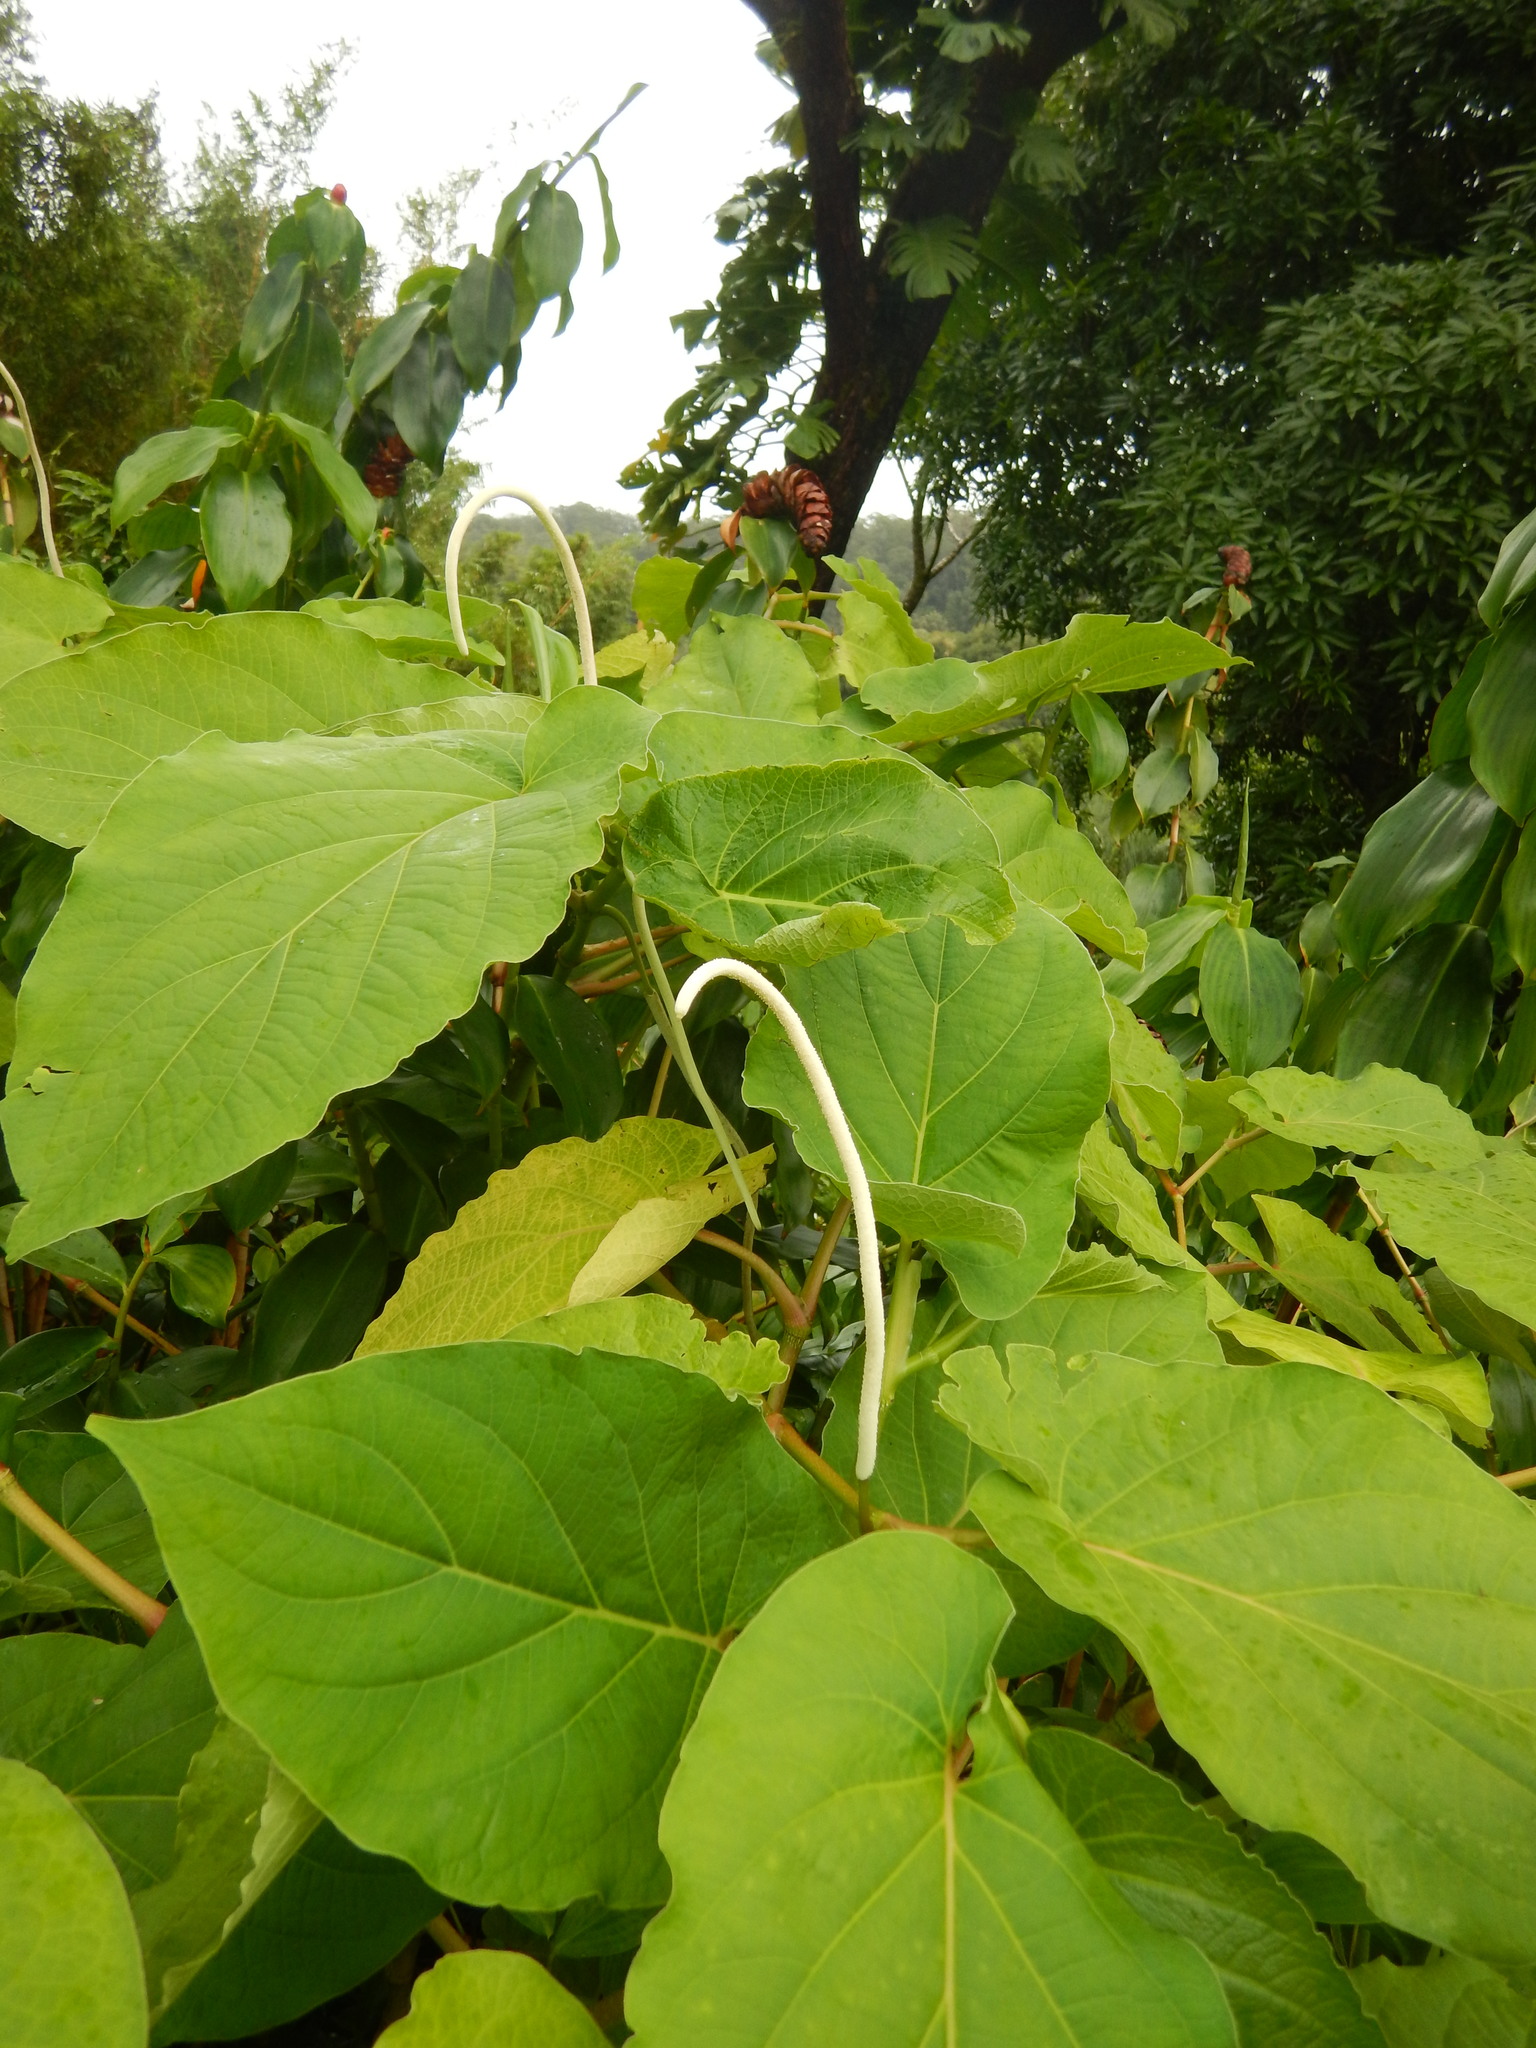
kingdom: Plantae
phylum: Tracheophyta
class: Magnoliopsida
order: Piperales
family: Piperaceae
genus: Piper
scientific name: Piper auritum
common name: Vera cruz pepper
